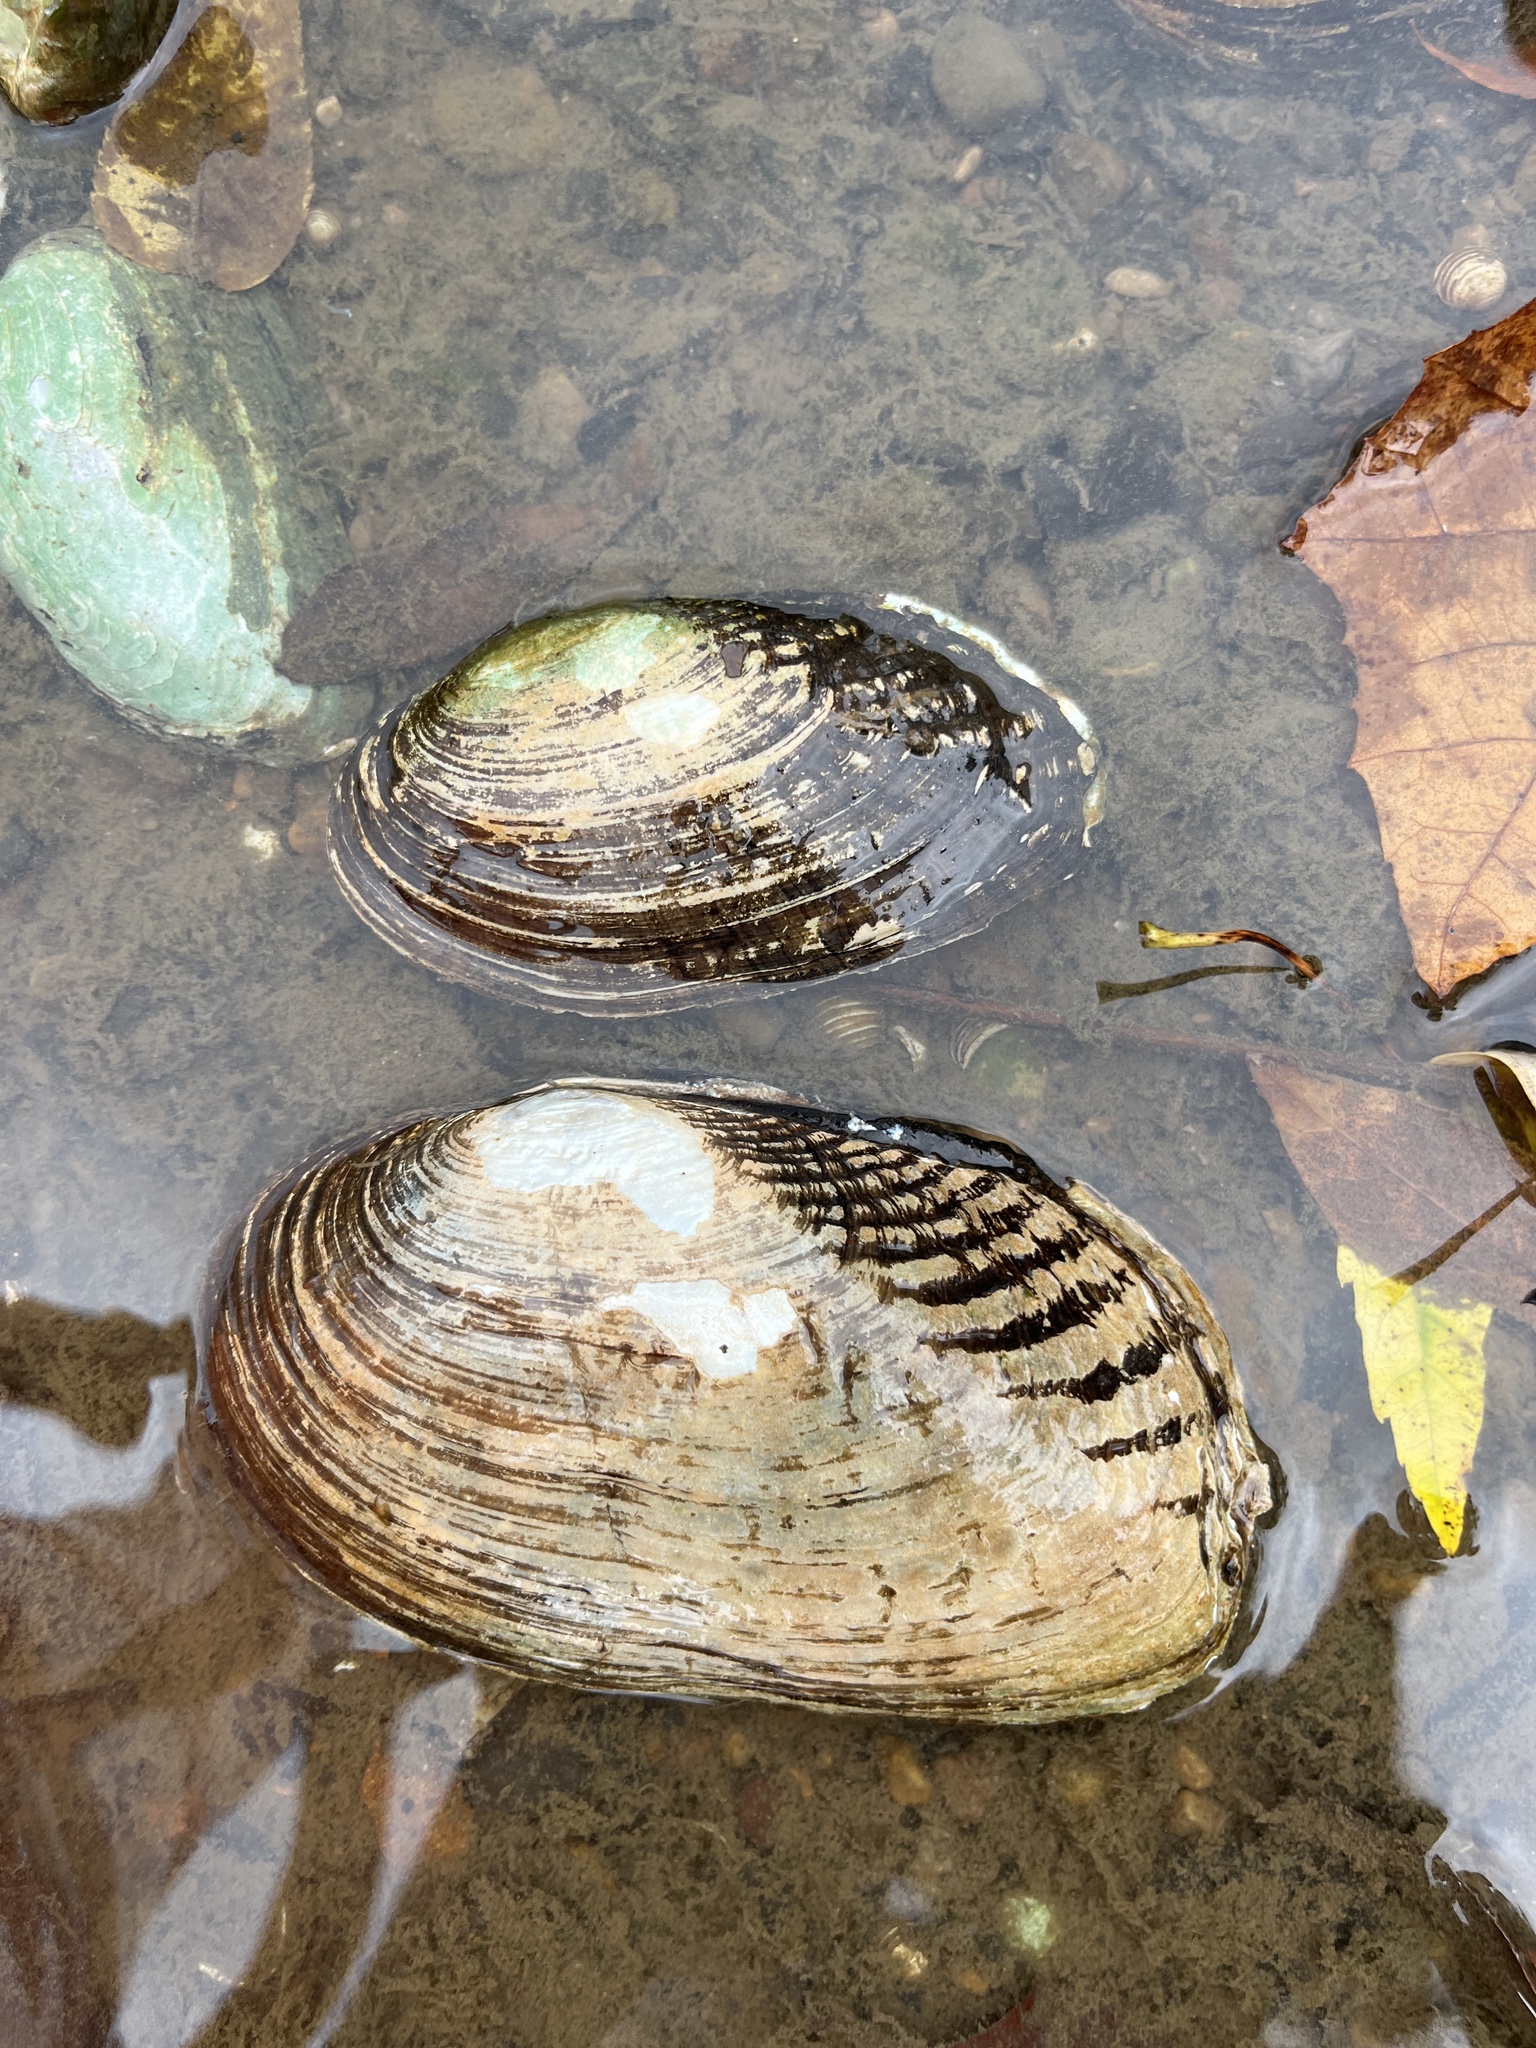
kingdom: Animalia
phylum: Mollusca
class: Bivalvia
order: Unionida
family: Unionidae
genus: Lasmigona
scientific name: Lasmigona costata
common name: Flutedshell
